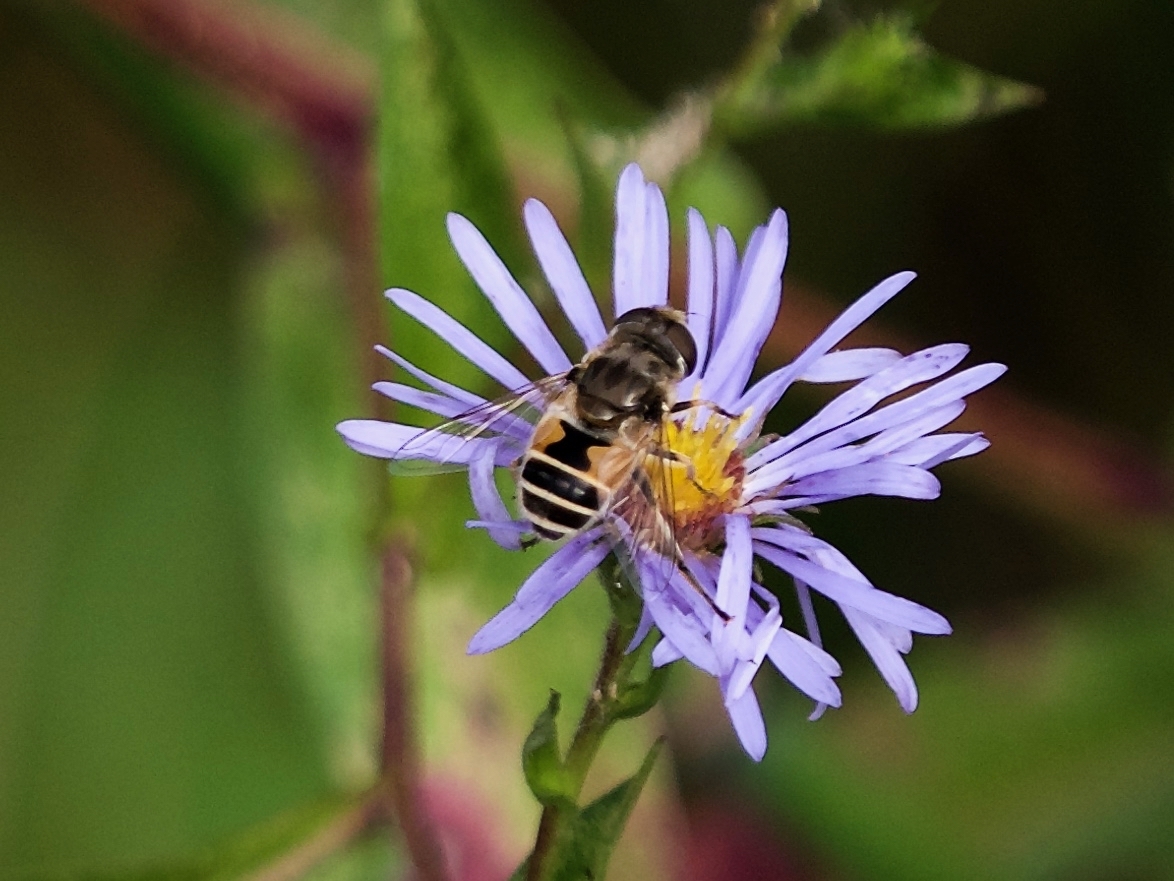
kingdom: Animalia
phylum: Arthropoda
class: Insecta
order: Diptera
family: Syrphidae
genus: Eristalis
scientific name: Eristalis arbustorum
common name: Hover fly
